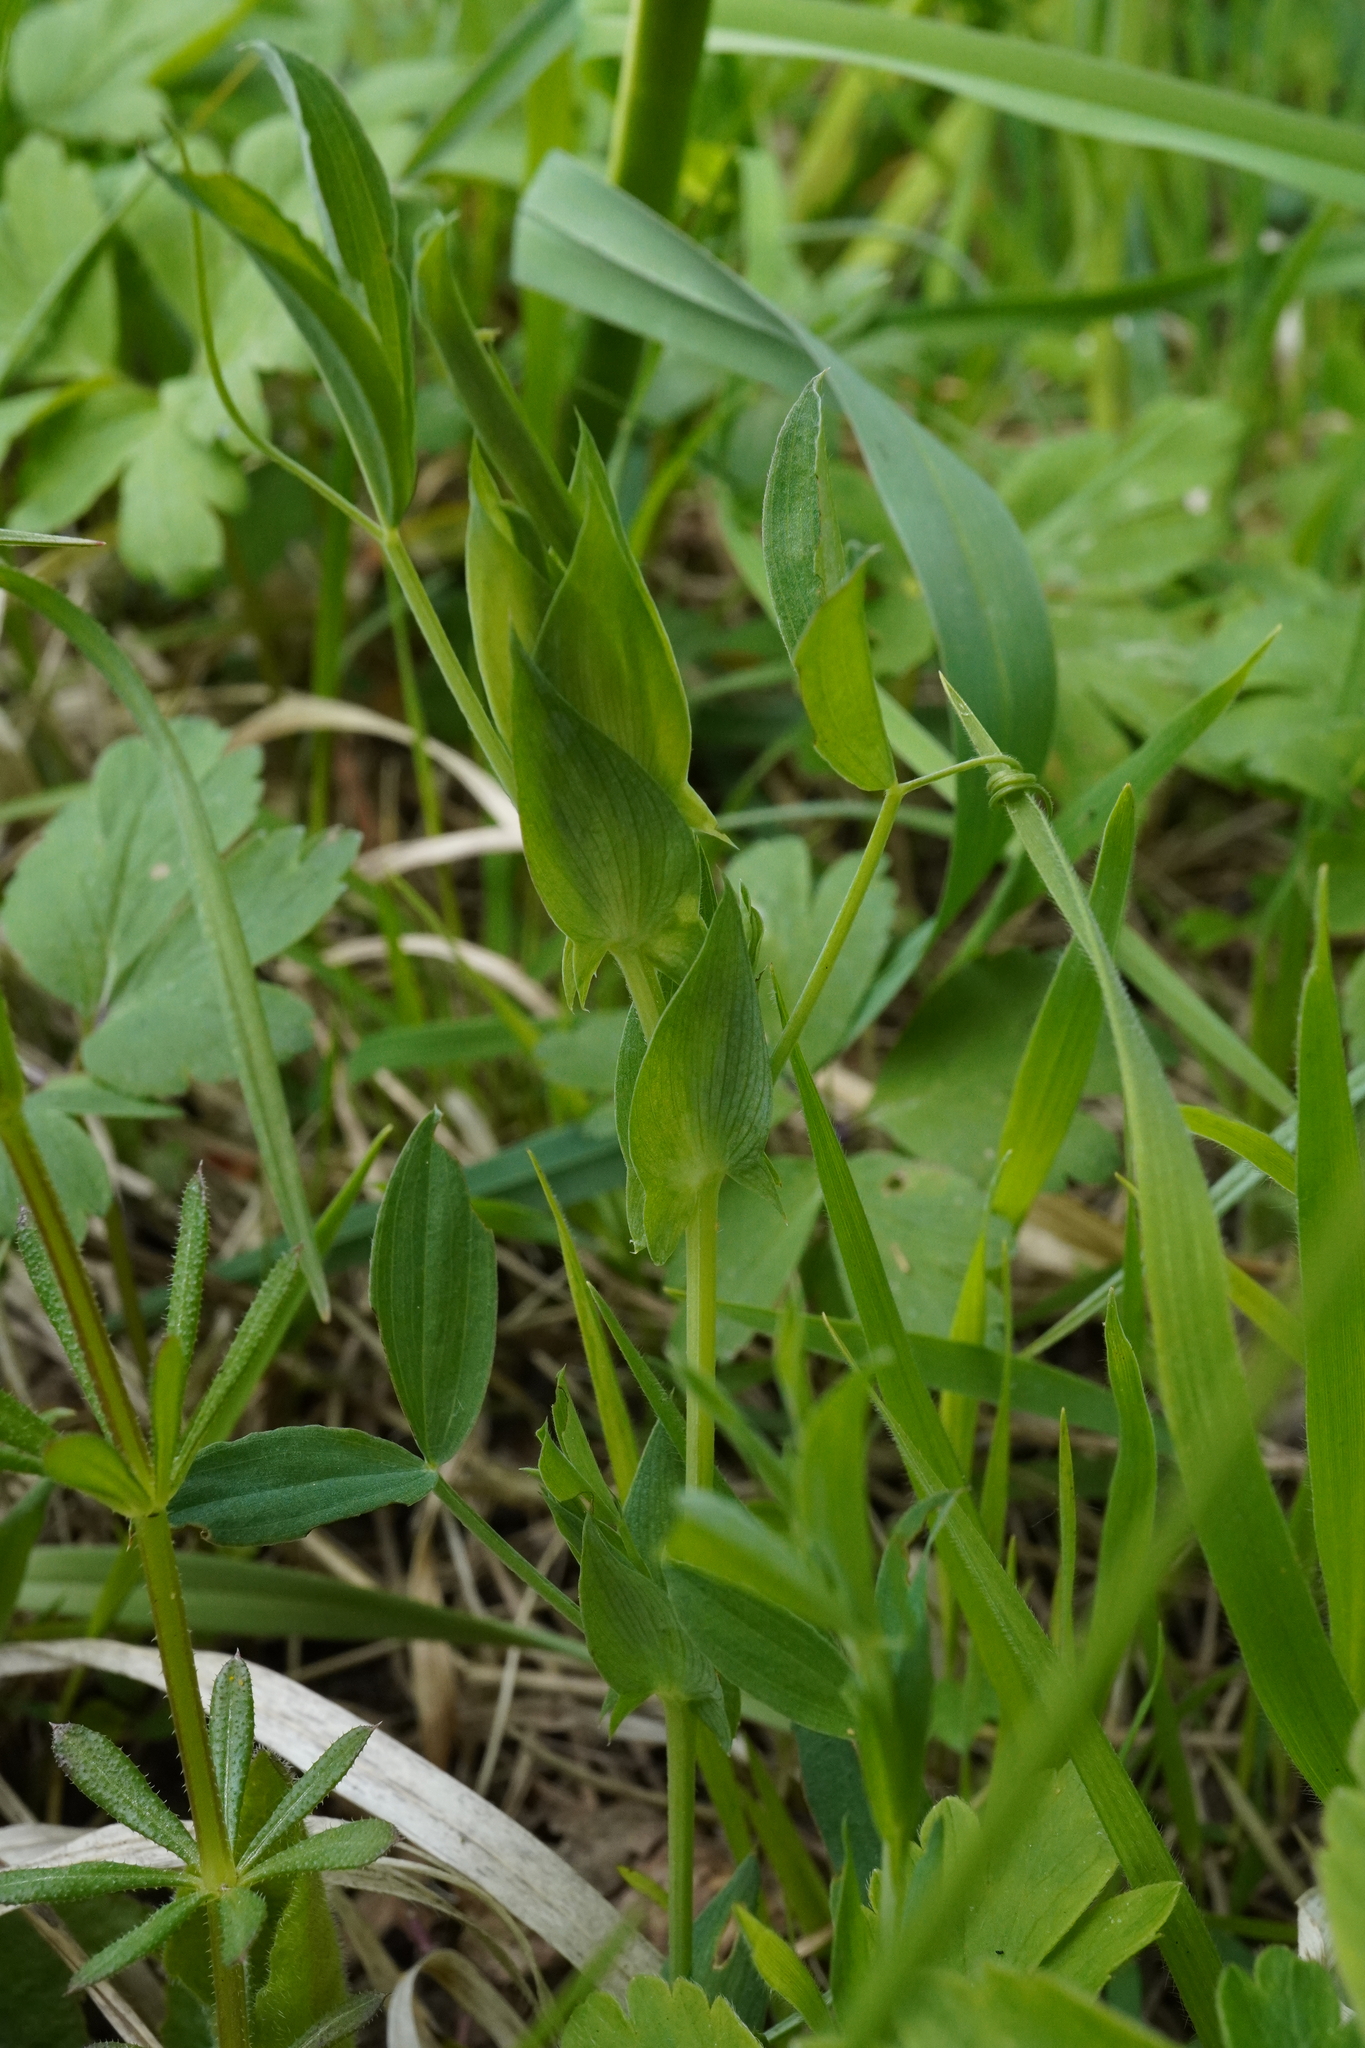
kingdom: Plantae
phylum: Tracheophyta
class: Magnoliopsida
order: Fabales
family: Fabaceae
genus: Lathyrus
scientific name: Lathyrus pratensis
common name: Meadow vetchling
